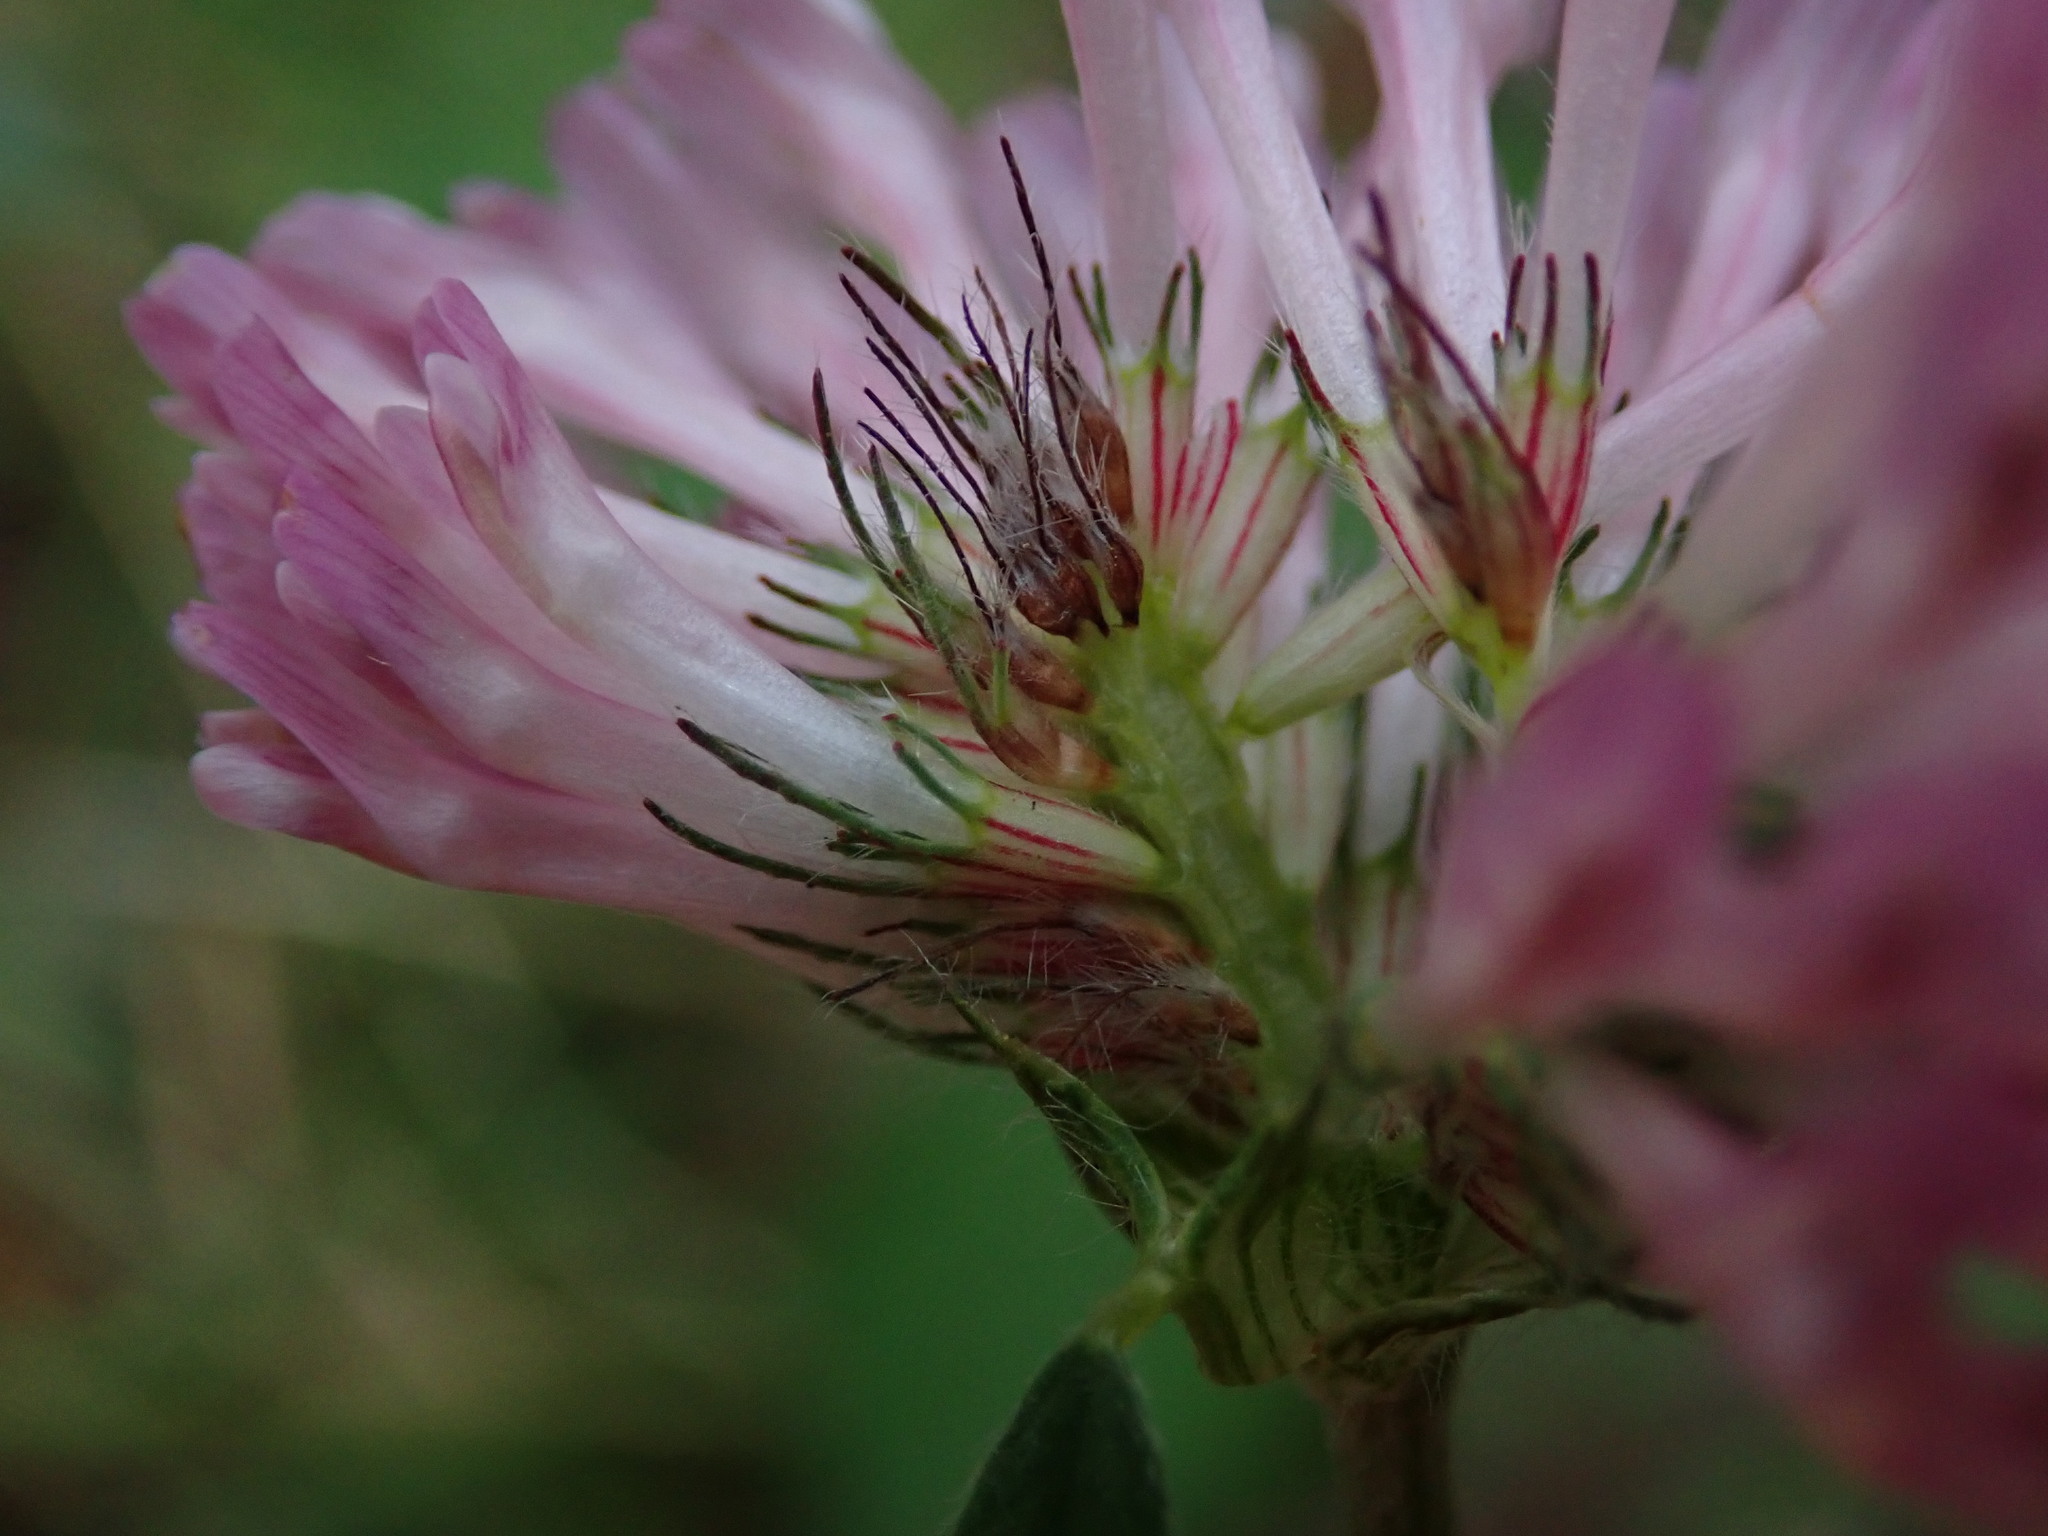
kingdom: Plantae
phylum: Tracheophyta
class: Magnoliopsida
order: Fabales
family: Fabaceae
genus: Trifolium
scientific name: Trifolium pratense
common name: Red clover
